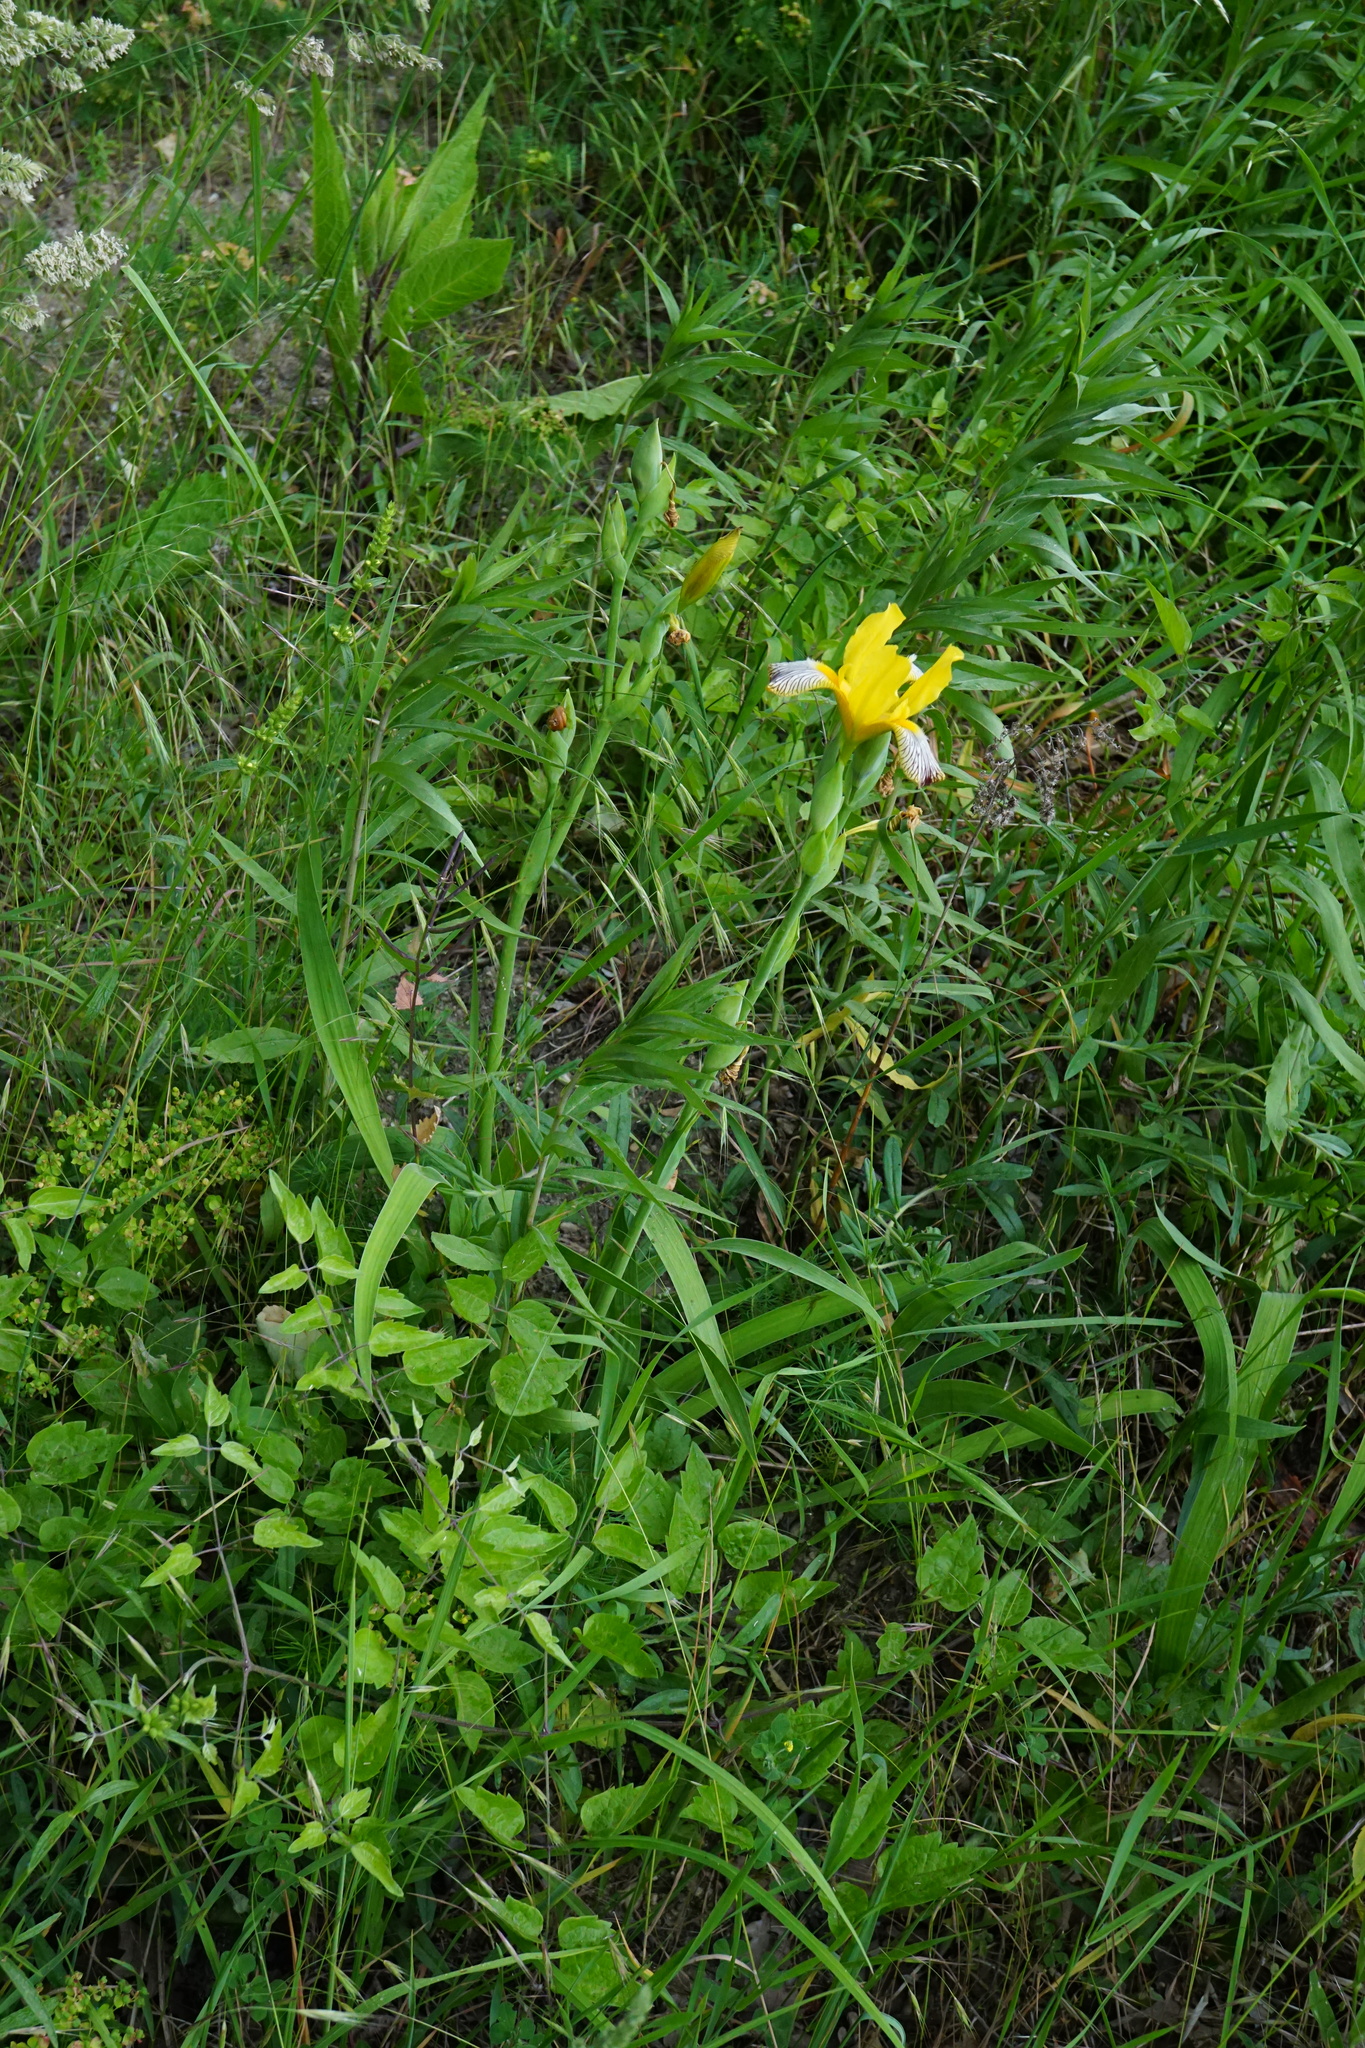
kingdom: Plantae
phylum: Tracheophyta
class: Liliopsida
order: Asparagales
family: Iridaceae
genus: Iris
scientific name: Iris variegata
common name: Hungarian iris
